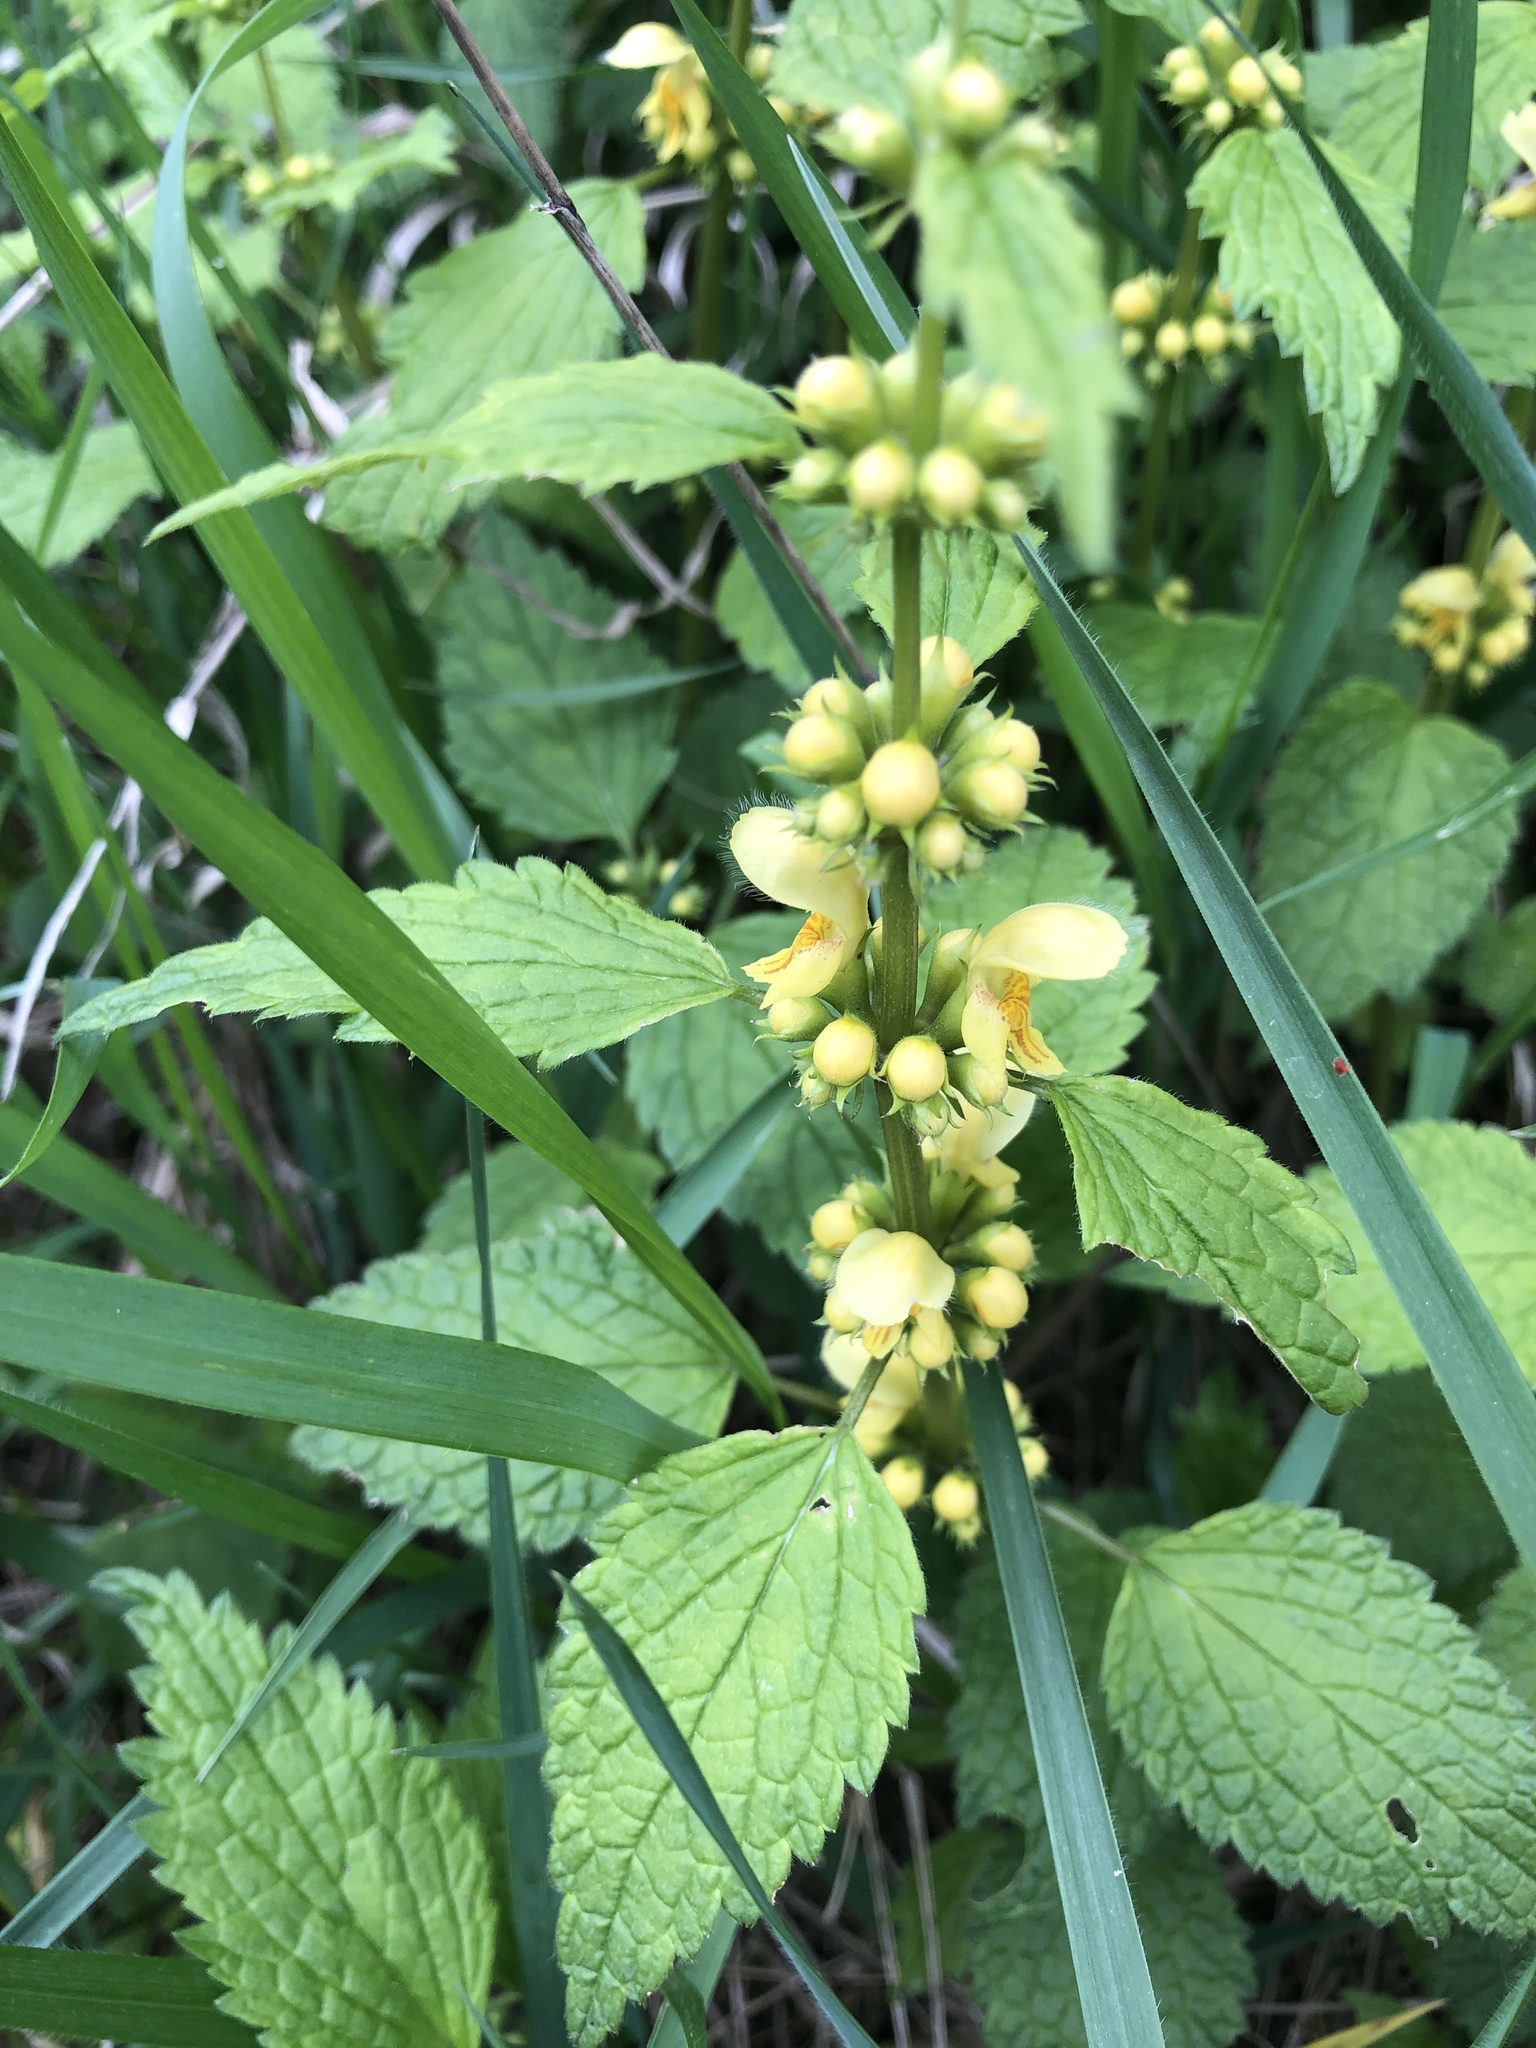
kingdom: Plantae
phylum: Tracheophyta
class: Magnoliopsida
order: Lamiales
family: Lamiaceae
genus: Lamium
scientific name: Lamium galeobdolon
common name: Yellow archangel
